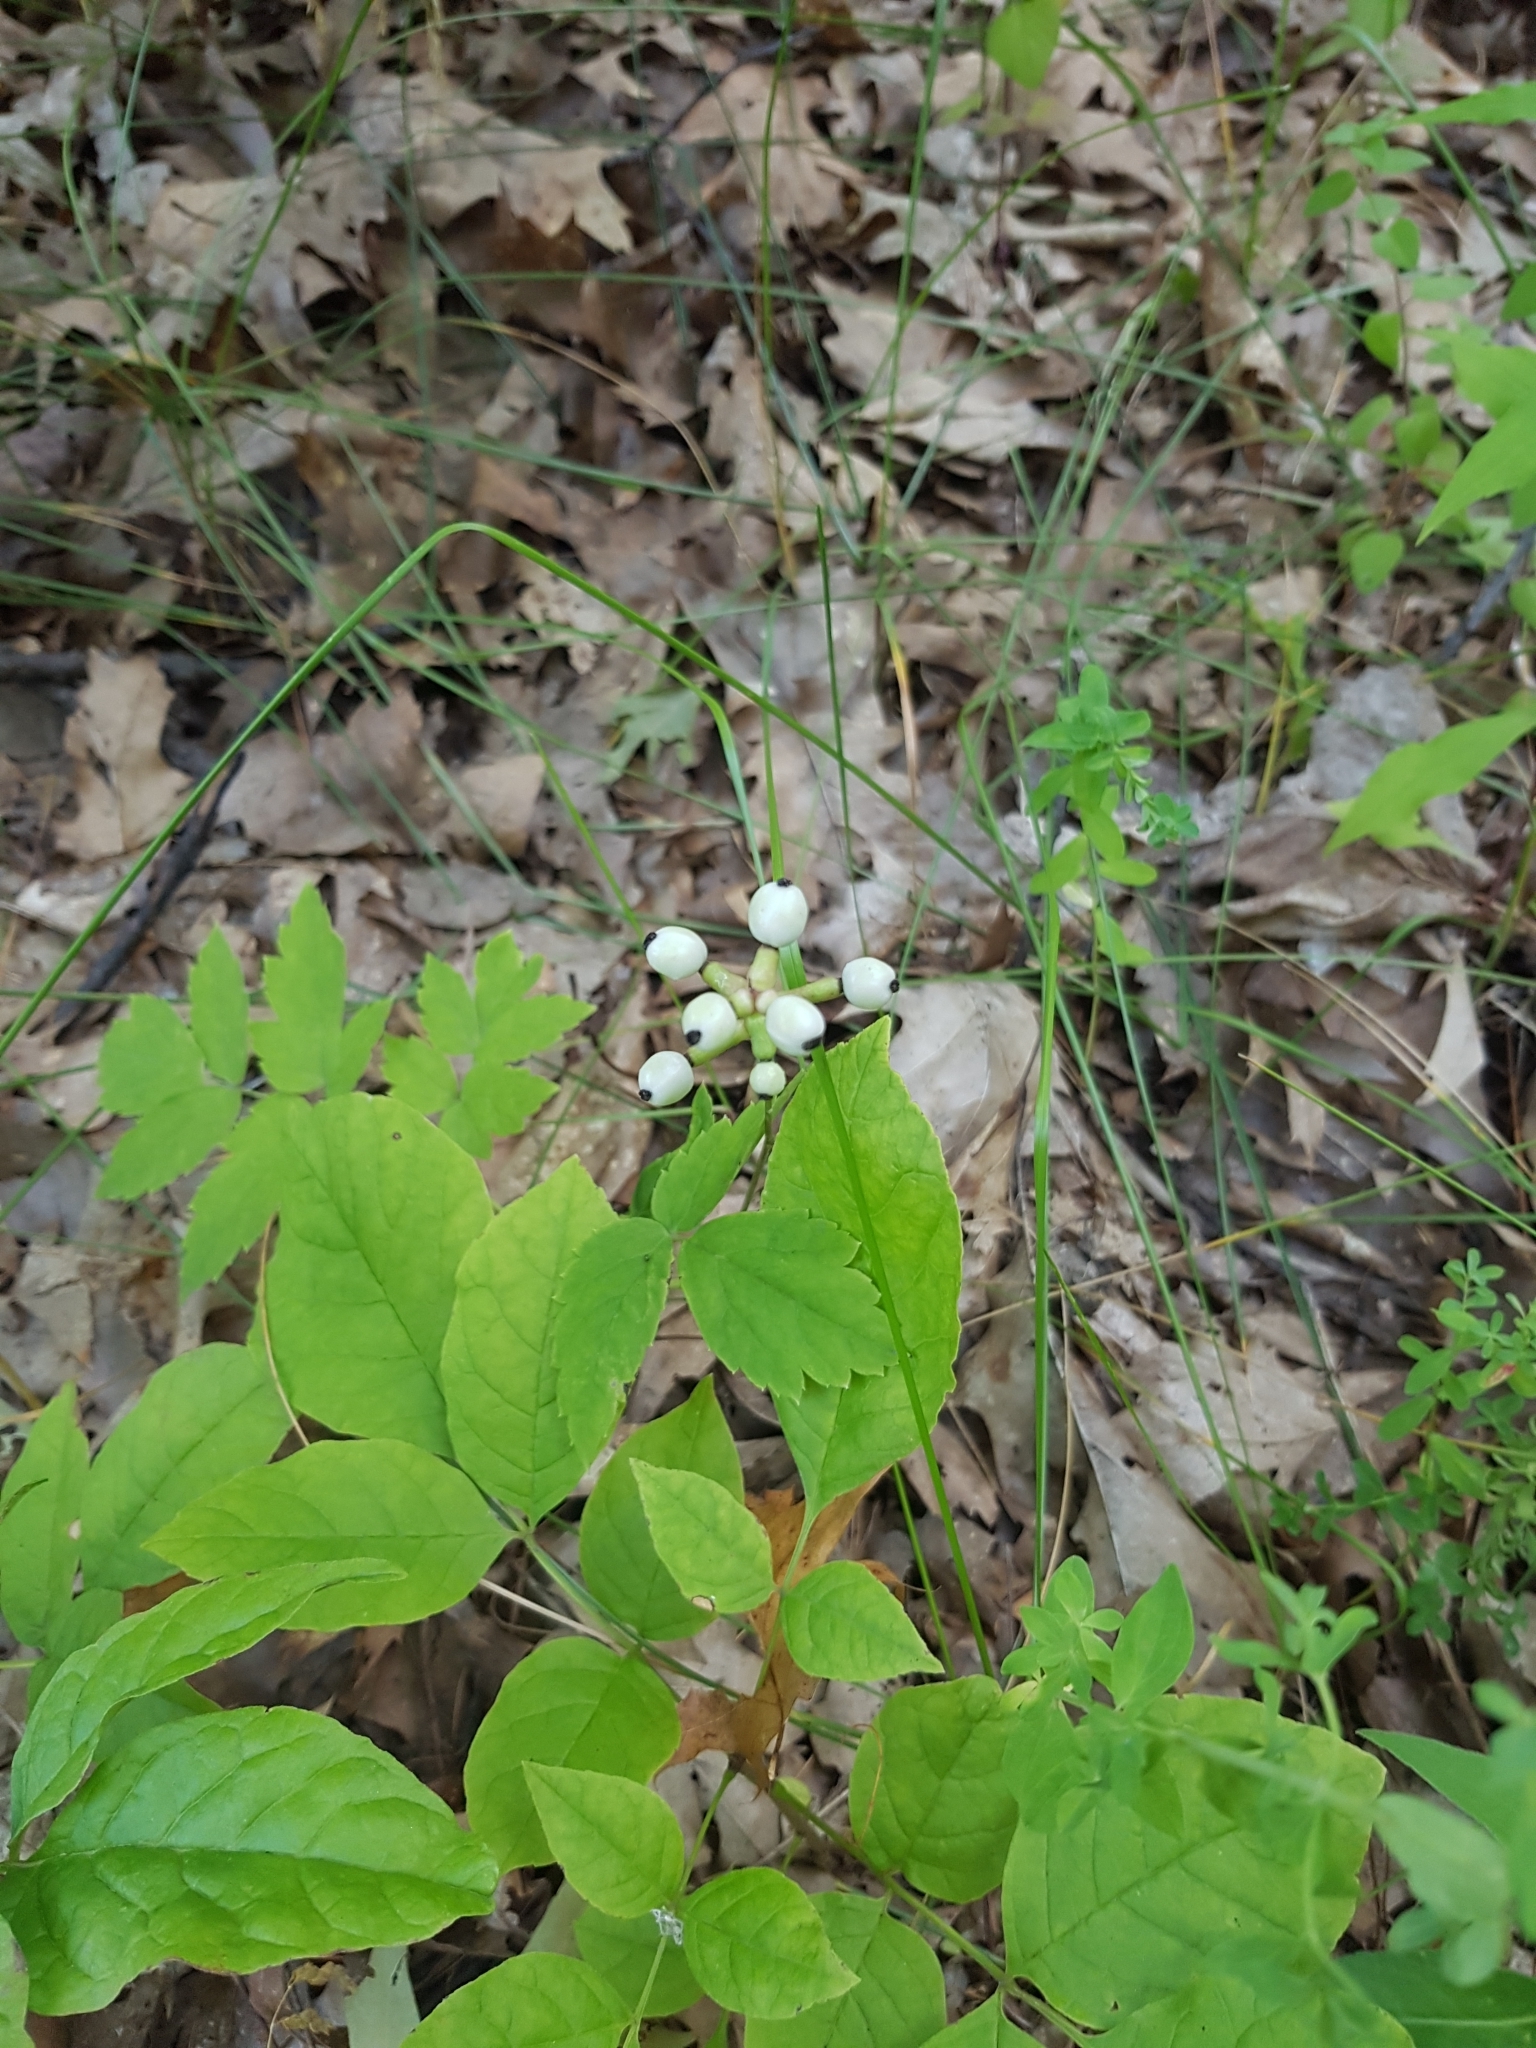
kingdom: Plantae
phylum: Tracheophyta
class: Magnoliopsida
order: Ranunculales
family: Ranunculaceae
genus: Actaea
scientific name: Actaea pachypoda
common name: Doll's-eyes
